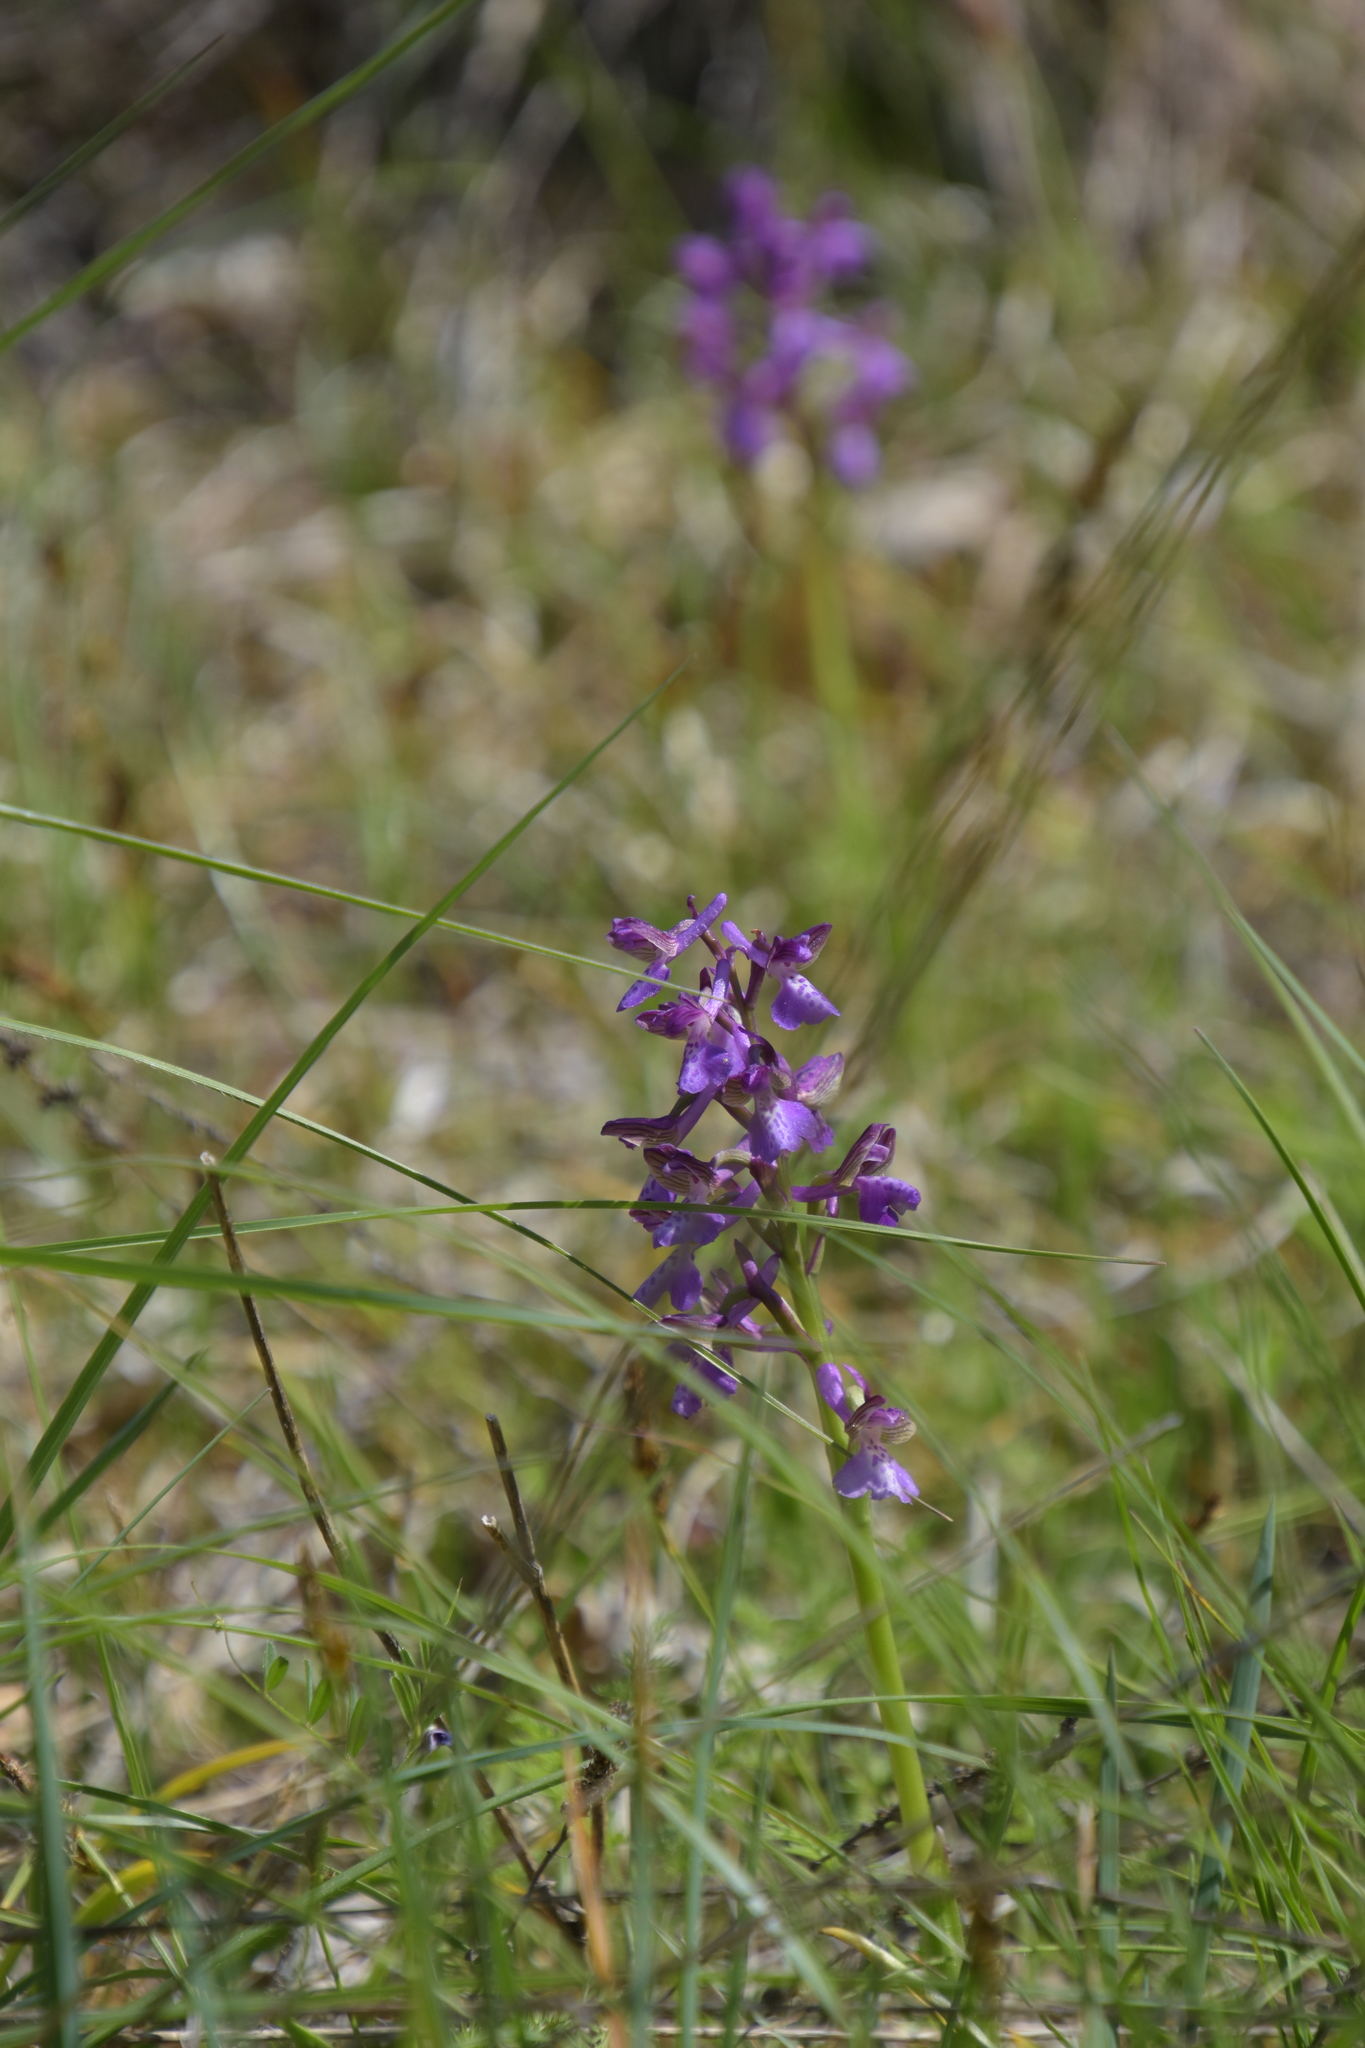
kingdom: Plantae
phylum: Tracheophyta
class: Liliopsida
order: Asparagales
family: Orchidaceae
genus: Anacamptis
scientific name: Anacamptis morio
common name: Green-winged orchid
